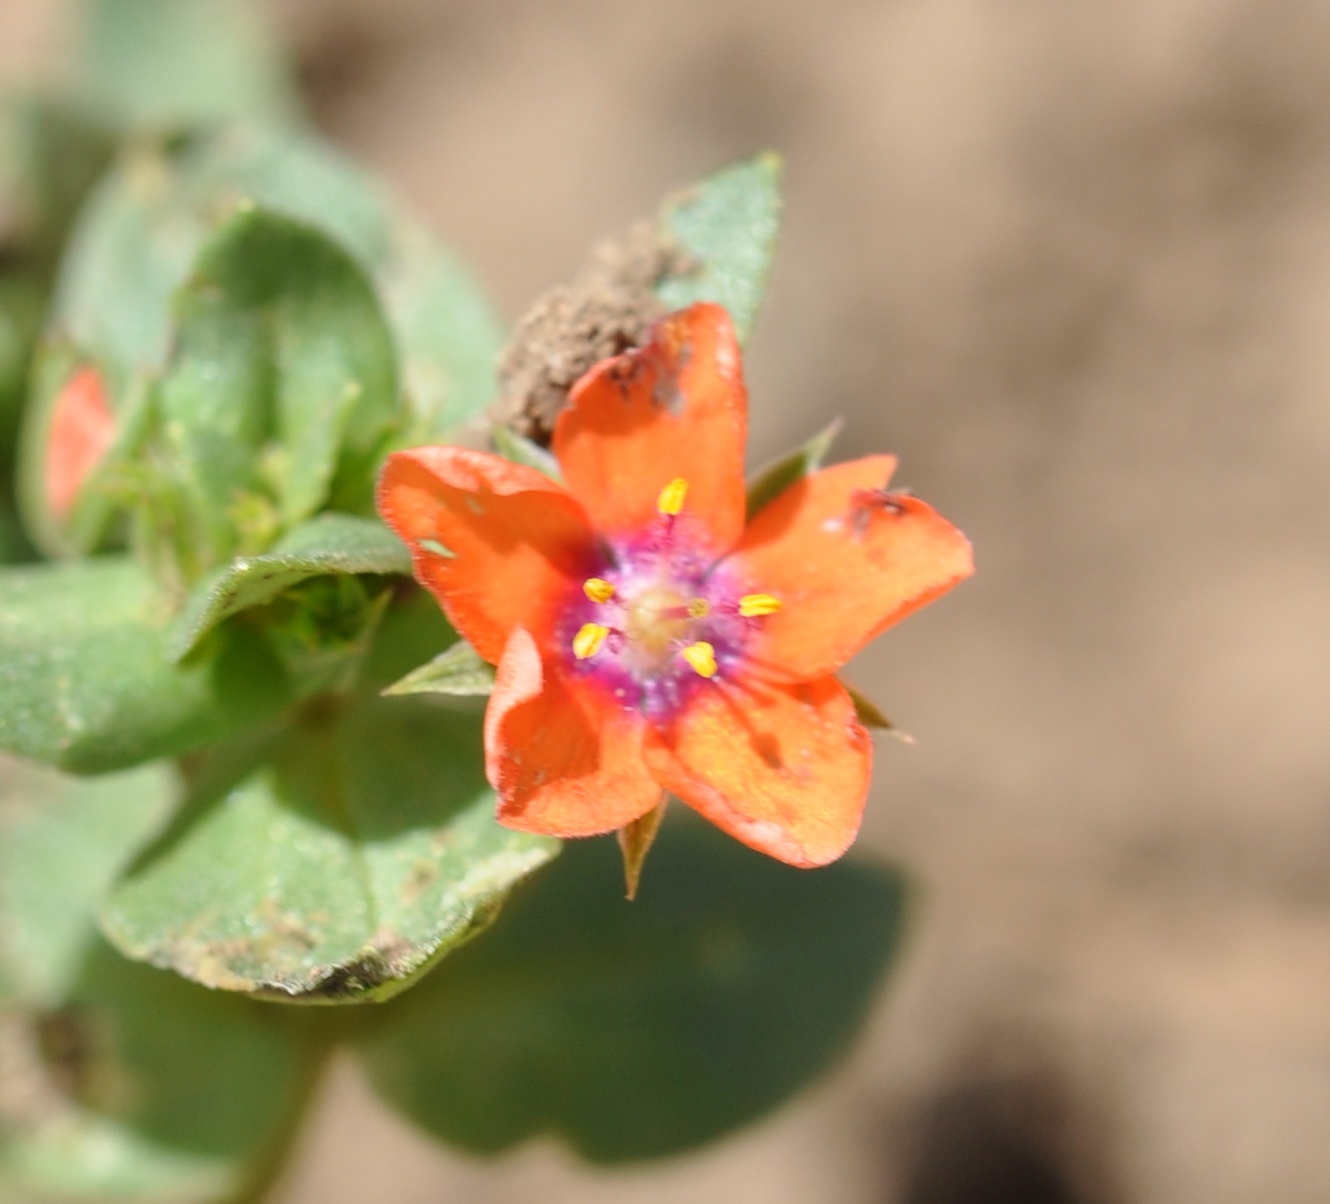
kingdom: Plantae
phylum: Tracheophyta
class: Magnoliopsida
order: Ericales
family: Primulaceae
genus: Lysimachia
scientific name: Lysimachia arvensis
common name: Scarlet pimpernel
